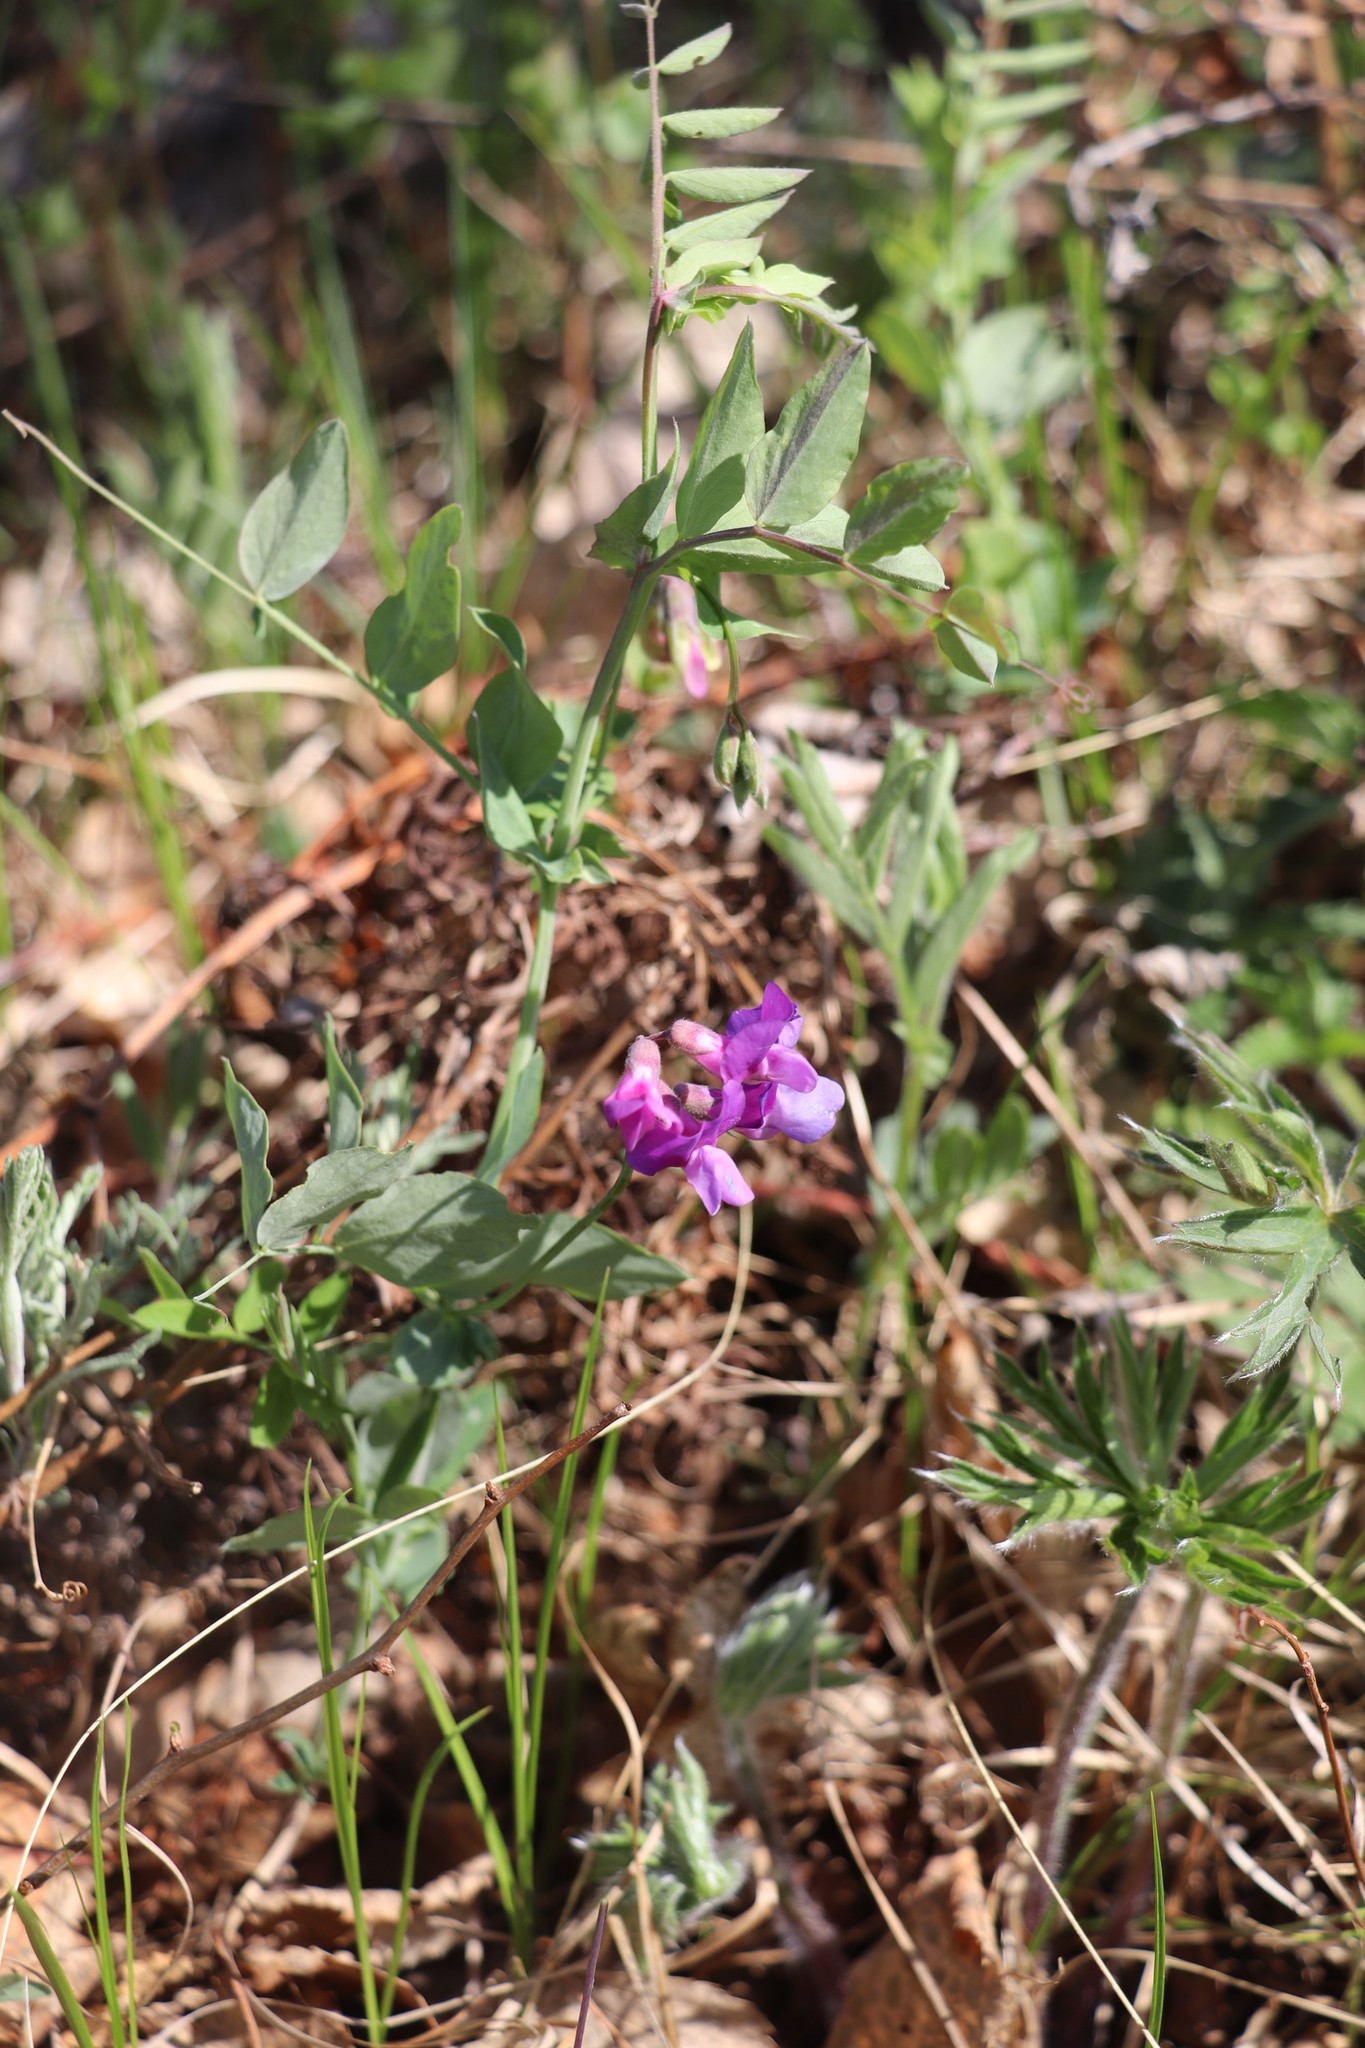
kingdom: Plantae
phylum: Tracheophyta
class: Magnoliopsida
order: Fabales
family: Fabaceae
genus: Lathyrus
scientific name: Lathyrus humilis
